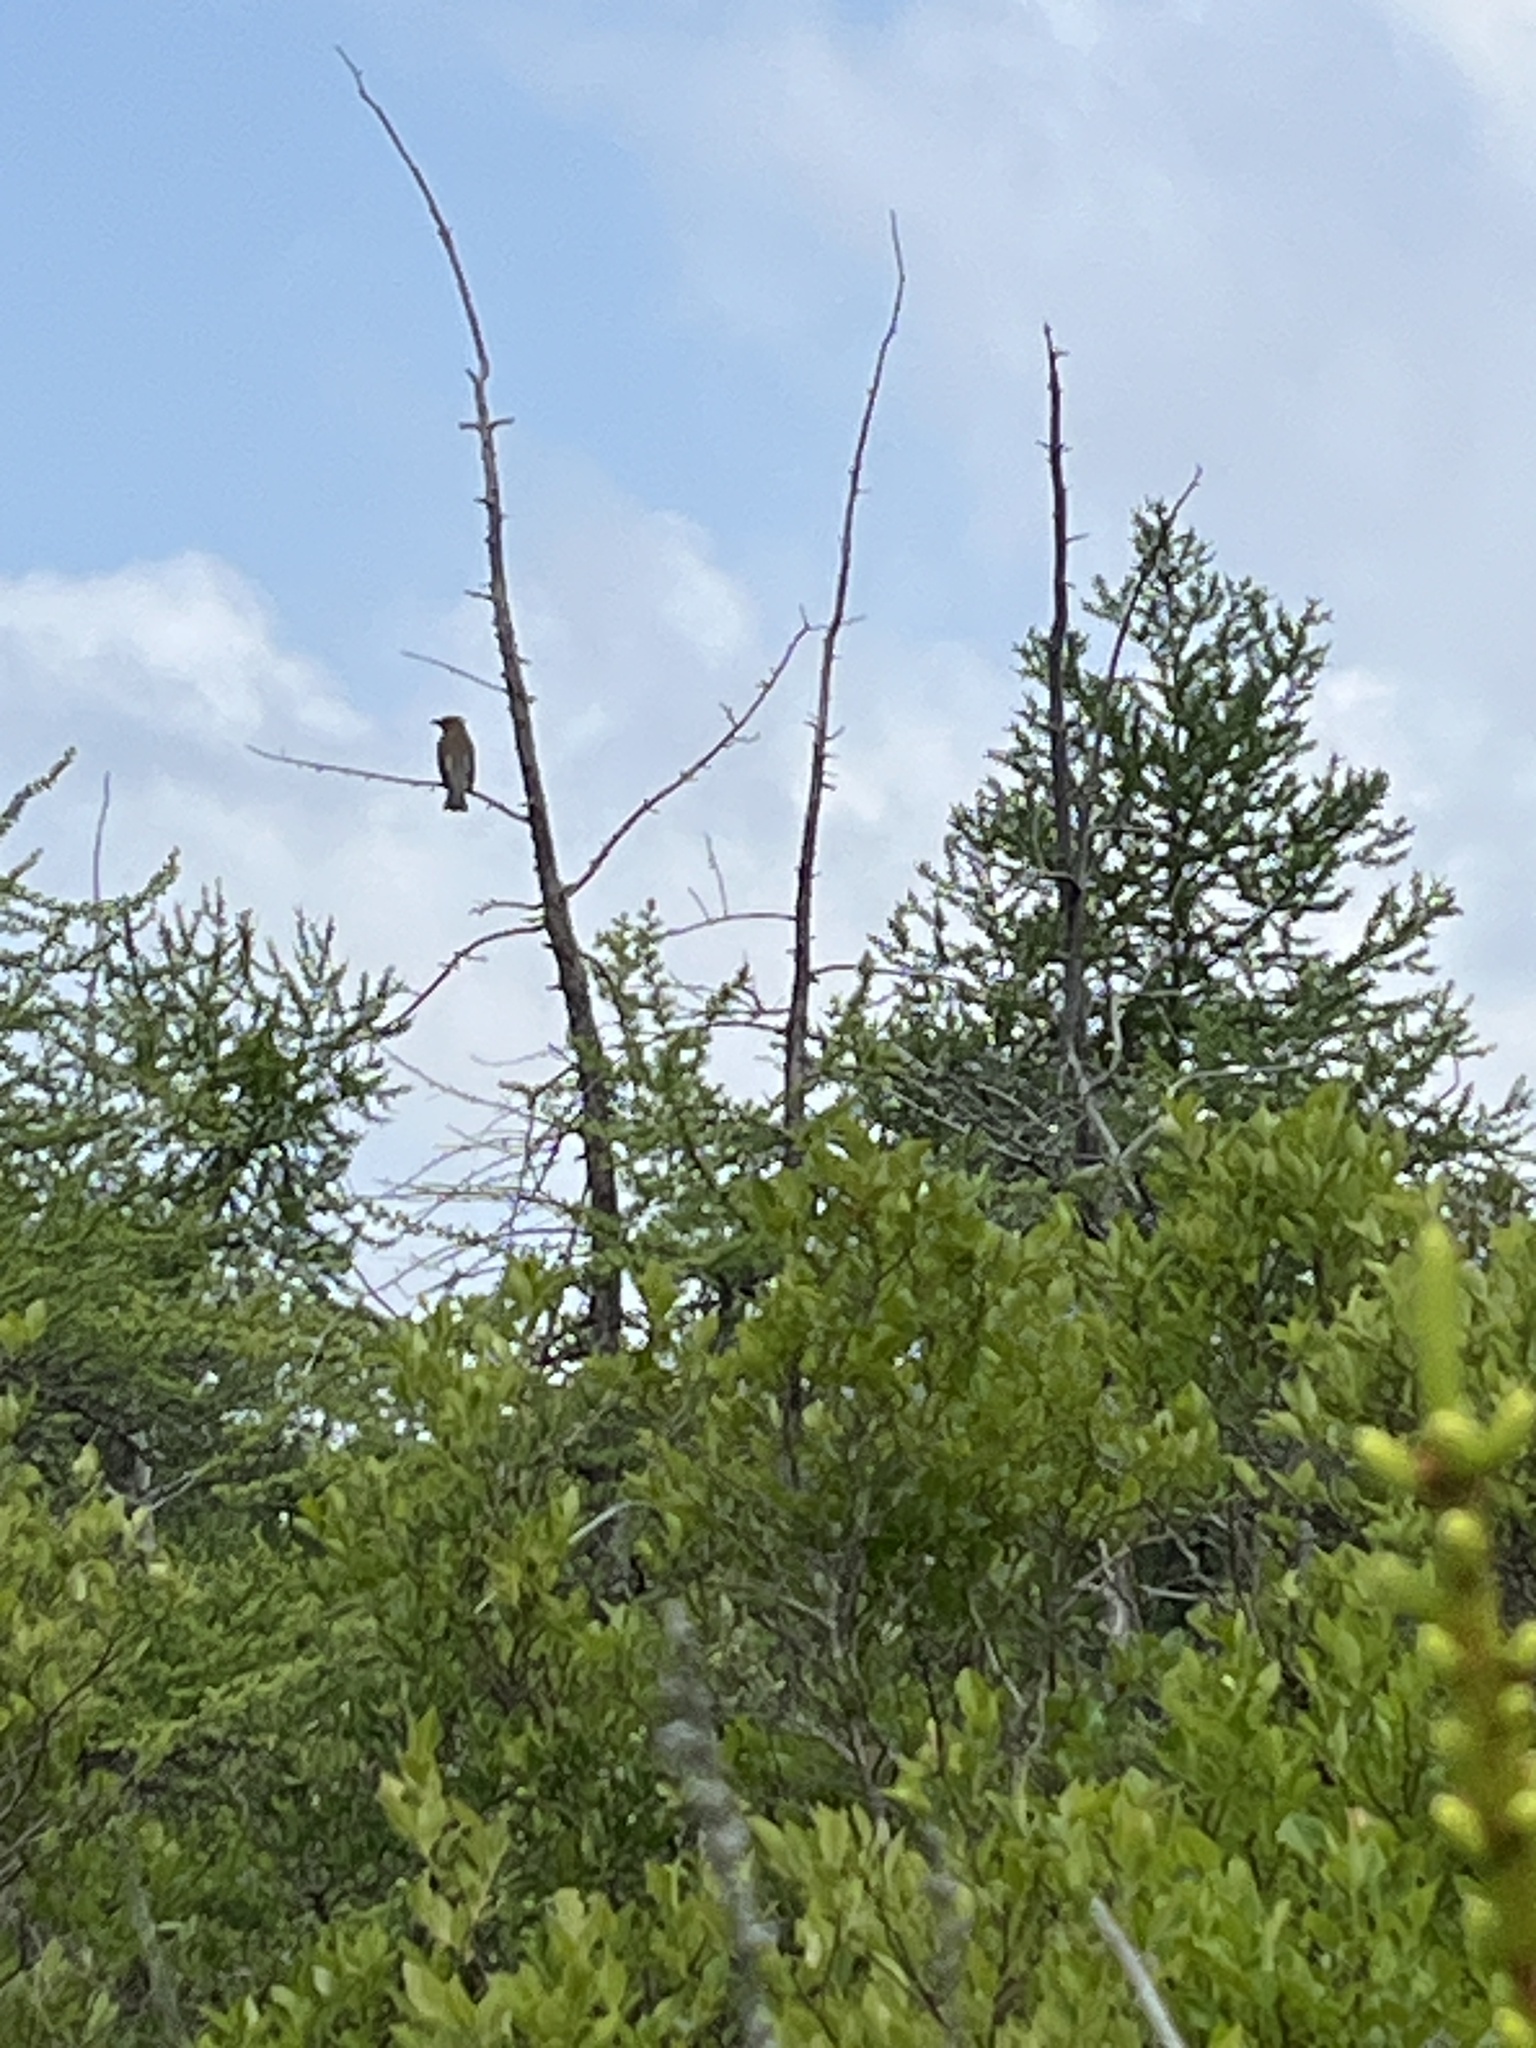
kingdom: Animalia
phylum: Chordata
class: Aves
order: Passeriformes
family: Bombycillidae
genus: Bombycilla
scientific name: Bombycilla cedrorum
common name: Cedar waxwing
